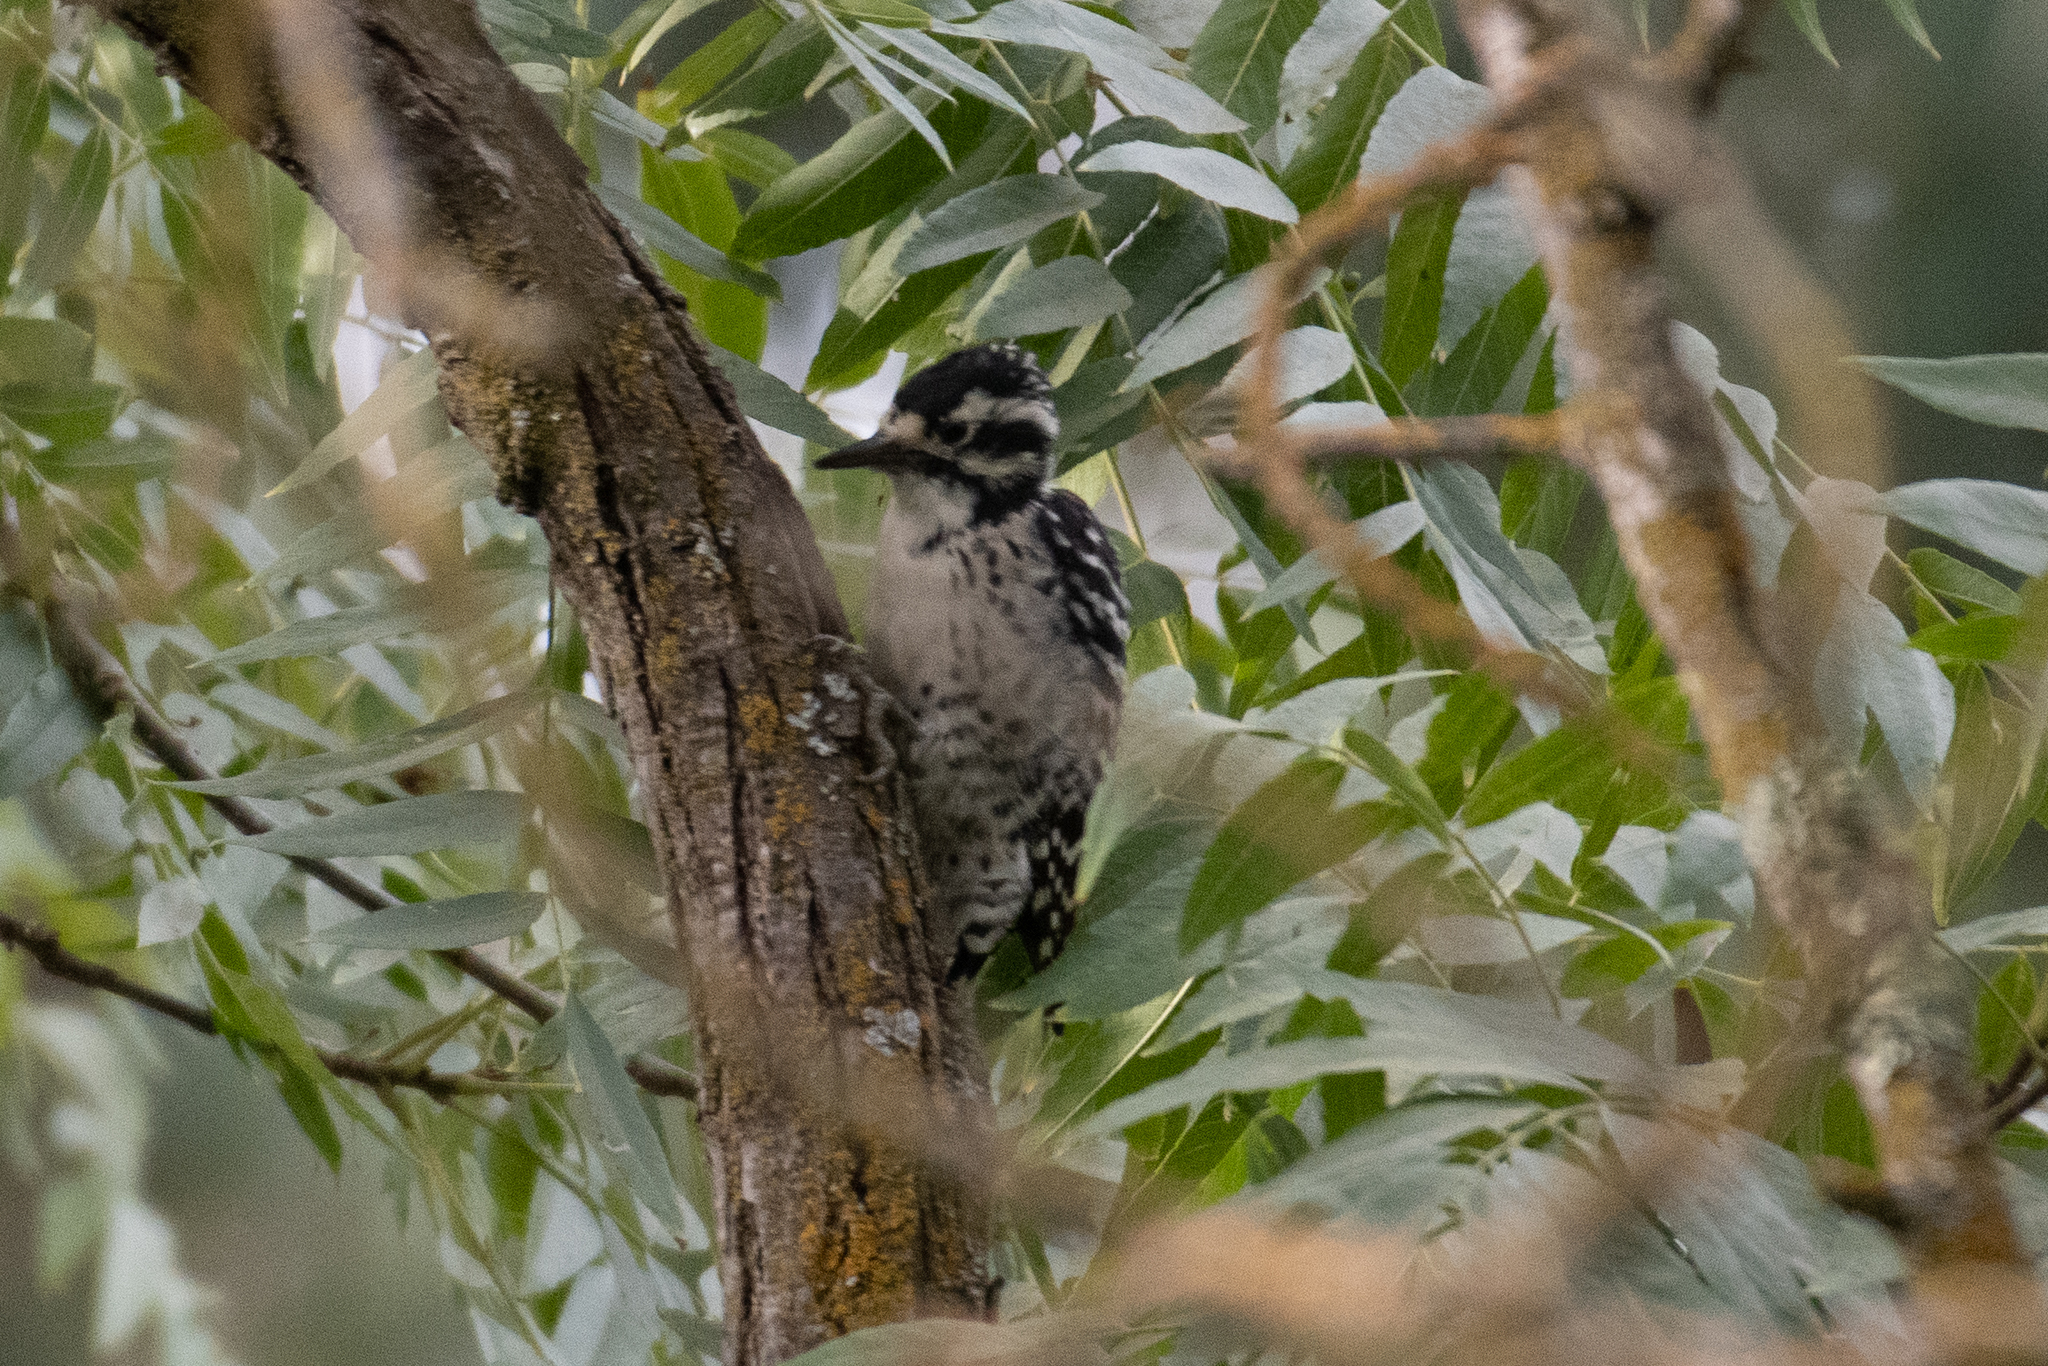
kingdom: Animalia
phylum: Chordata
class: Aves
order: Piciformes
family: Picidae
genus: Dryobates
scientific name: Dryobates nuttallii
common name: Nuttall's woodpecker
